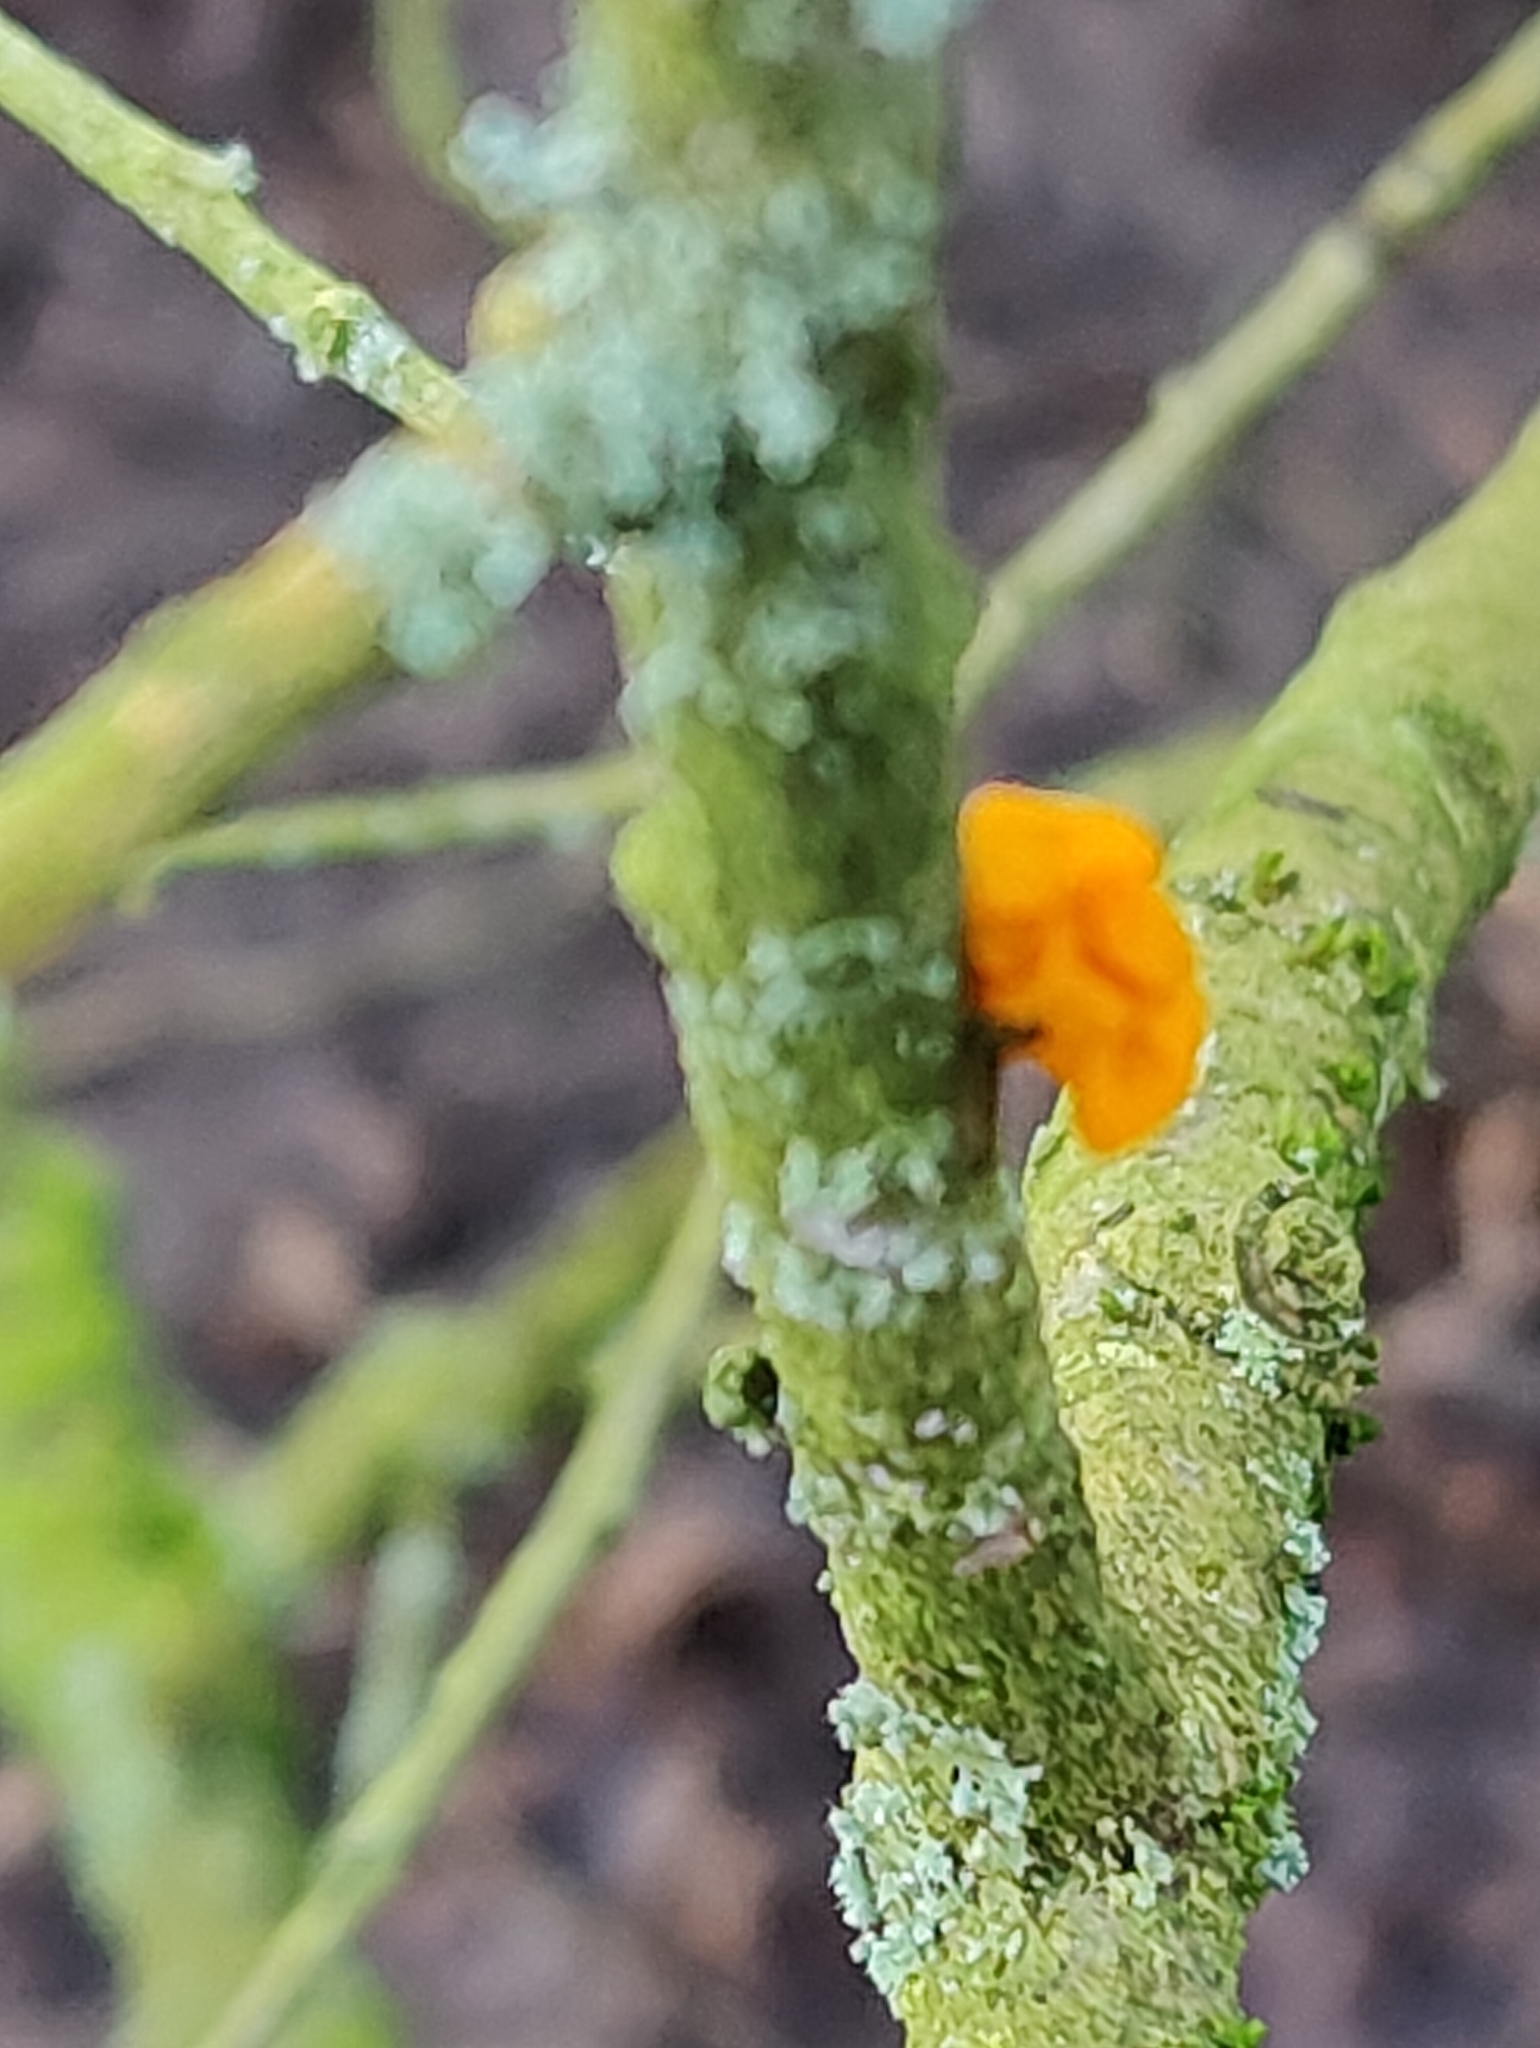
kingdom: Fungi
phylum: Basidiomycota
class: Tremellomycetes
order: Tremellales
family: Tremellaceae
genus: Tremella
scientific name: Tremella mesenterica
